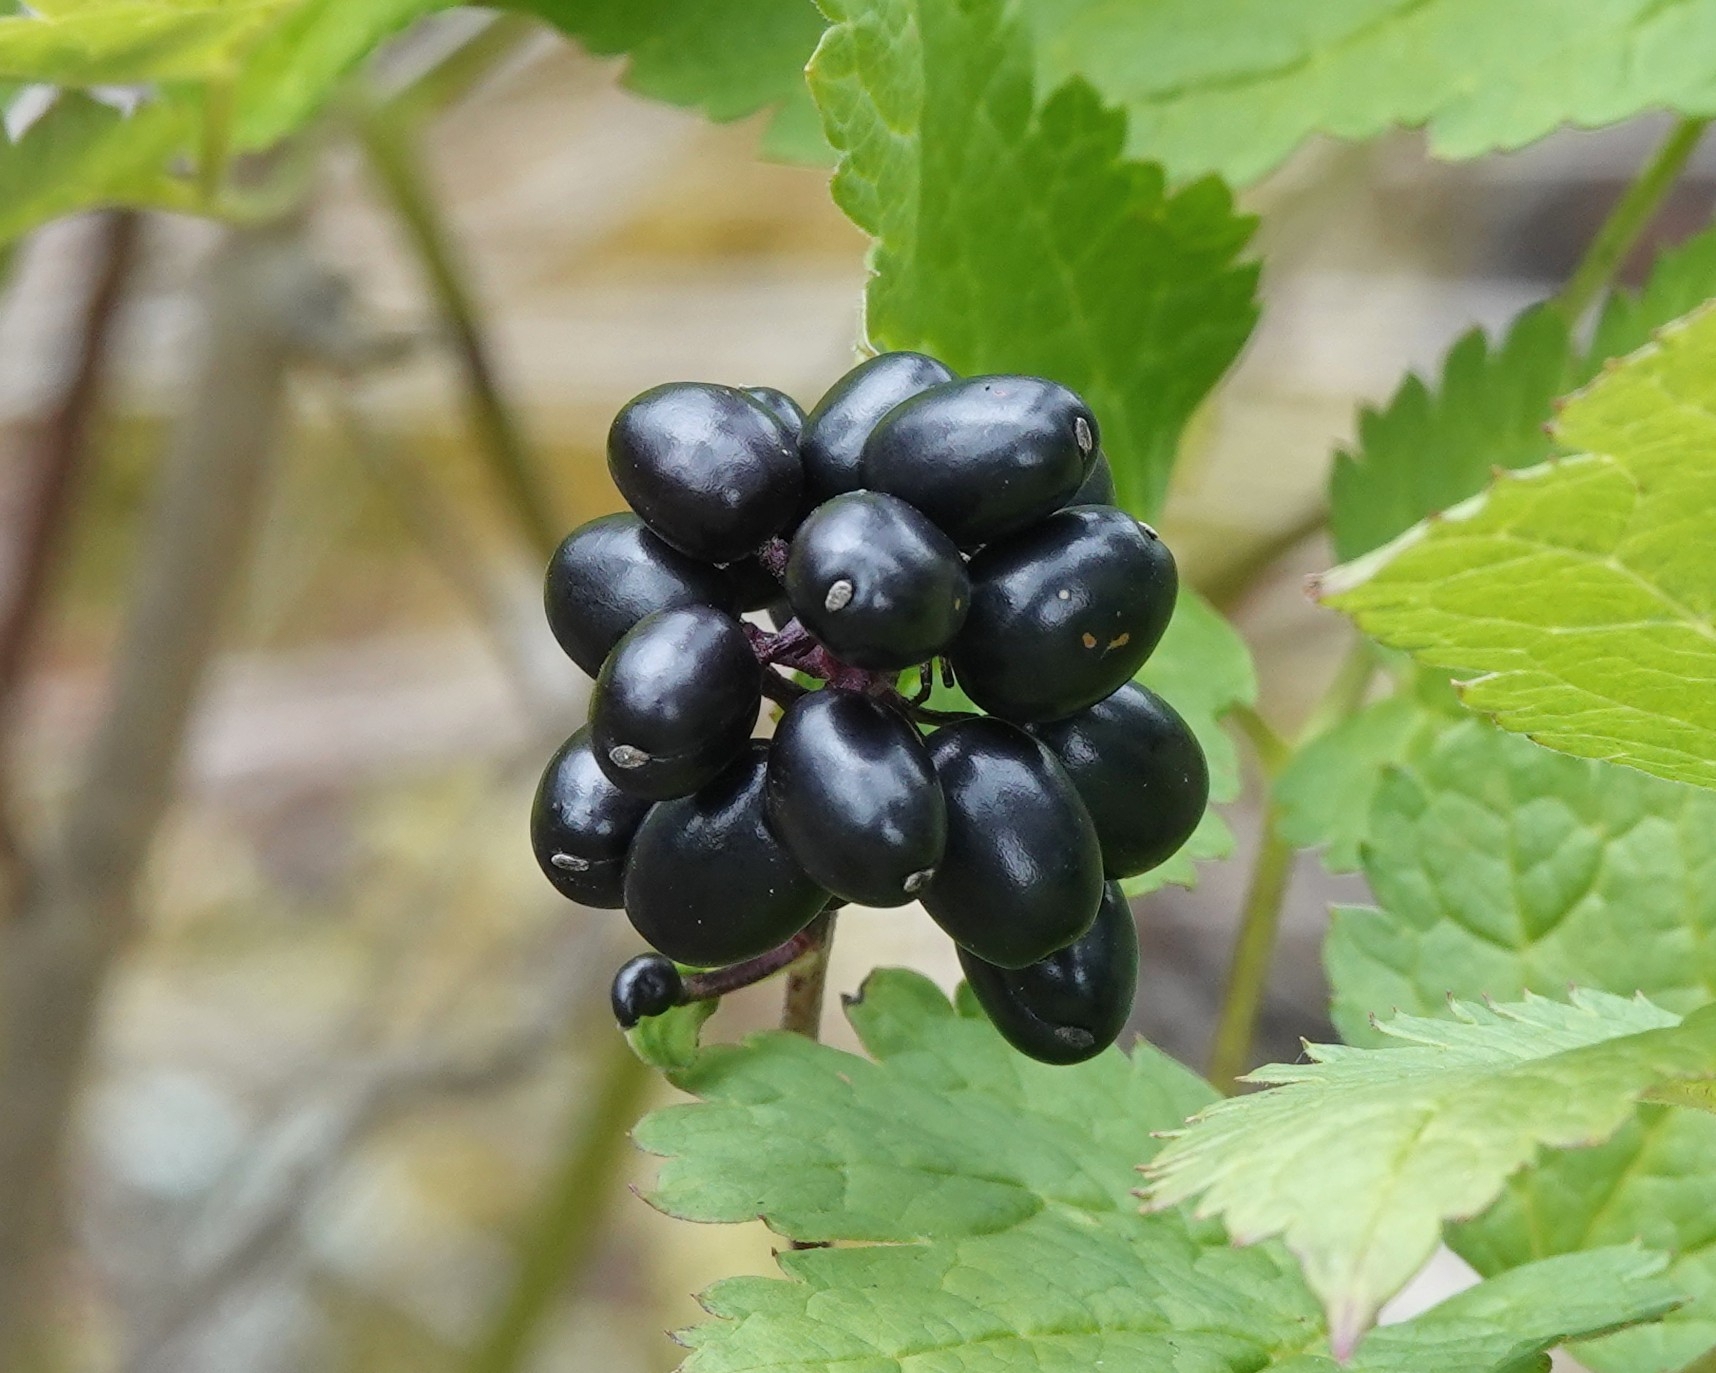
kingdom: Plantae
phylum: Tracheophyta
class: Magnoliopsida
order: Ranunculales
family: Ranunculaceae
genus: Actaea
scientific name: Actaea spicata
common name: Baneberry
